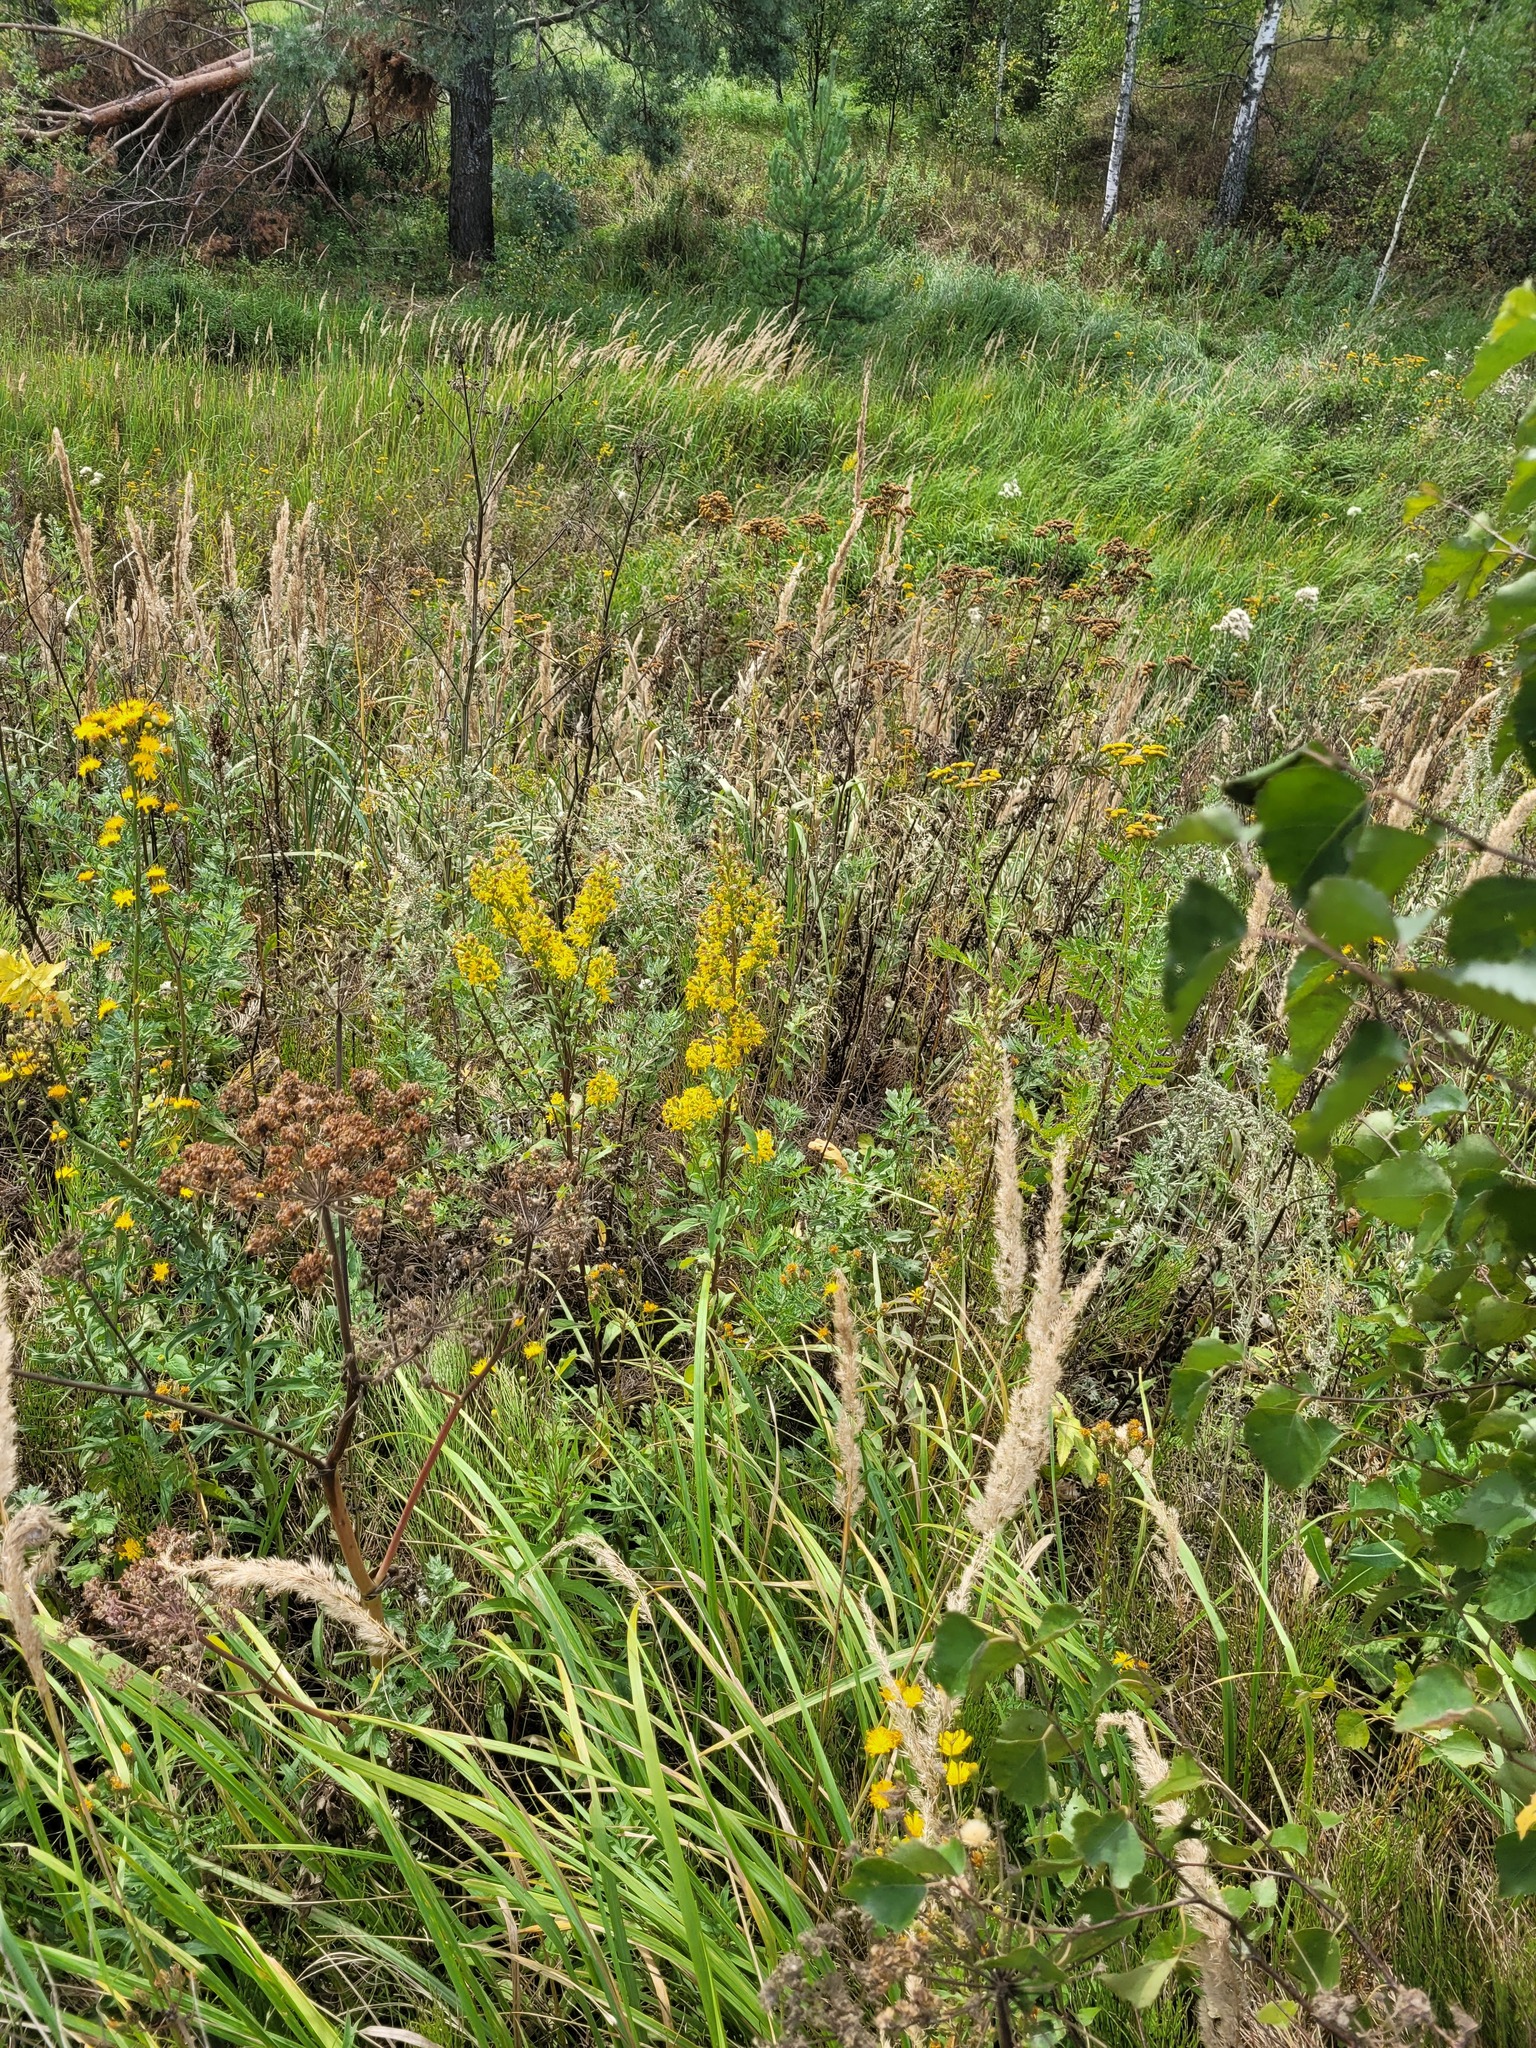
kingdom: Plantae
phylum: Tracheophyta
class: Magnoliopsida
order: Asterales
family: Asteraceae
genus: Solidago
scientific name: Solidago virgaurea
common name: Goldenrod
